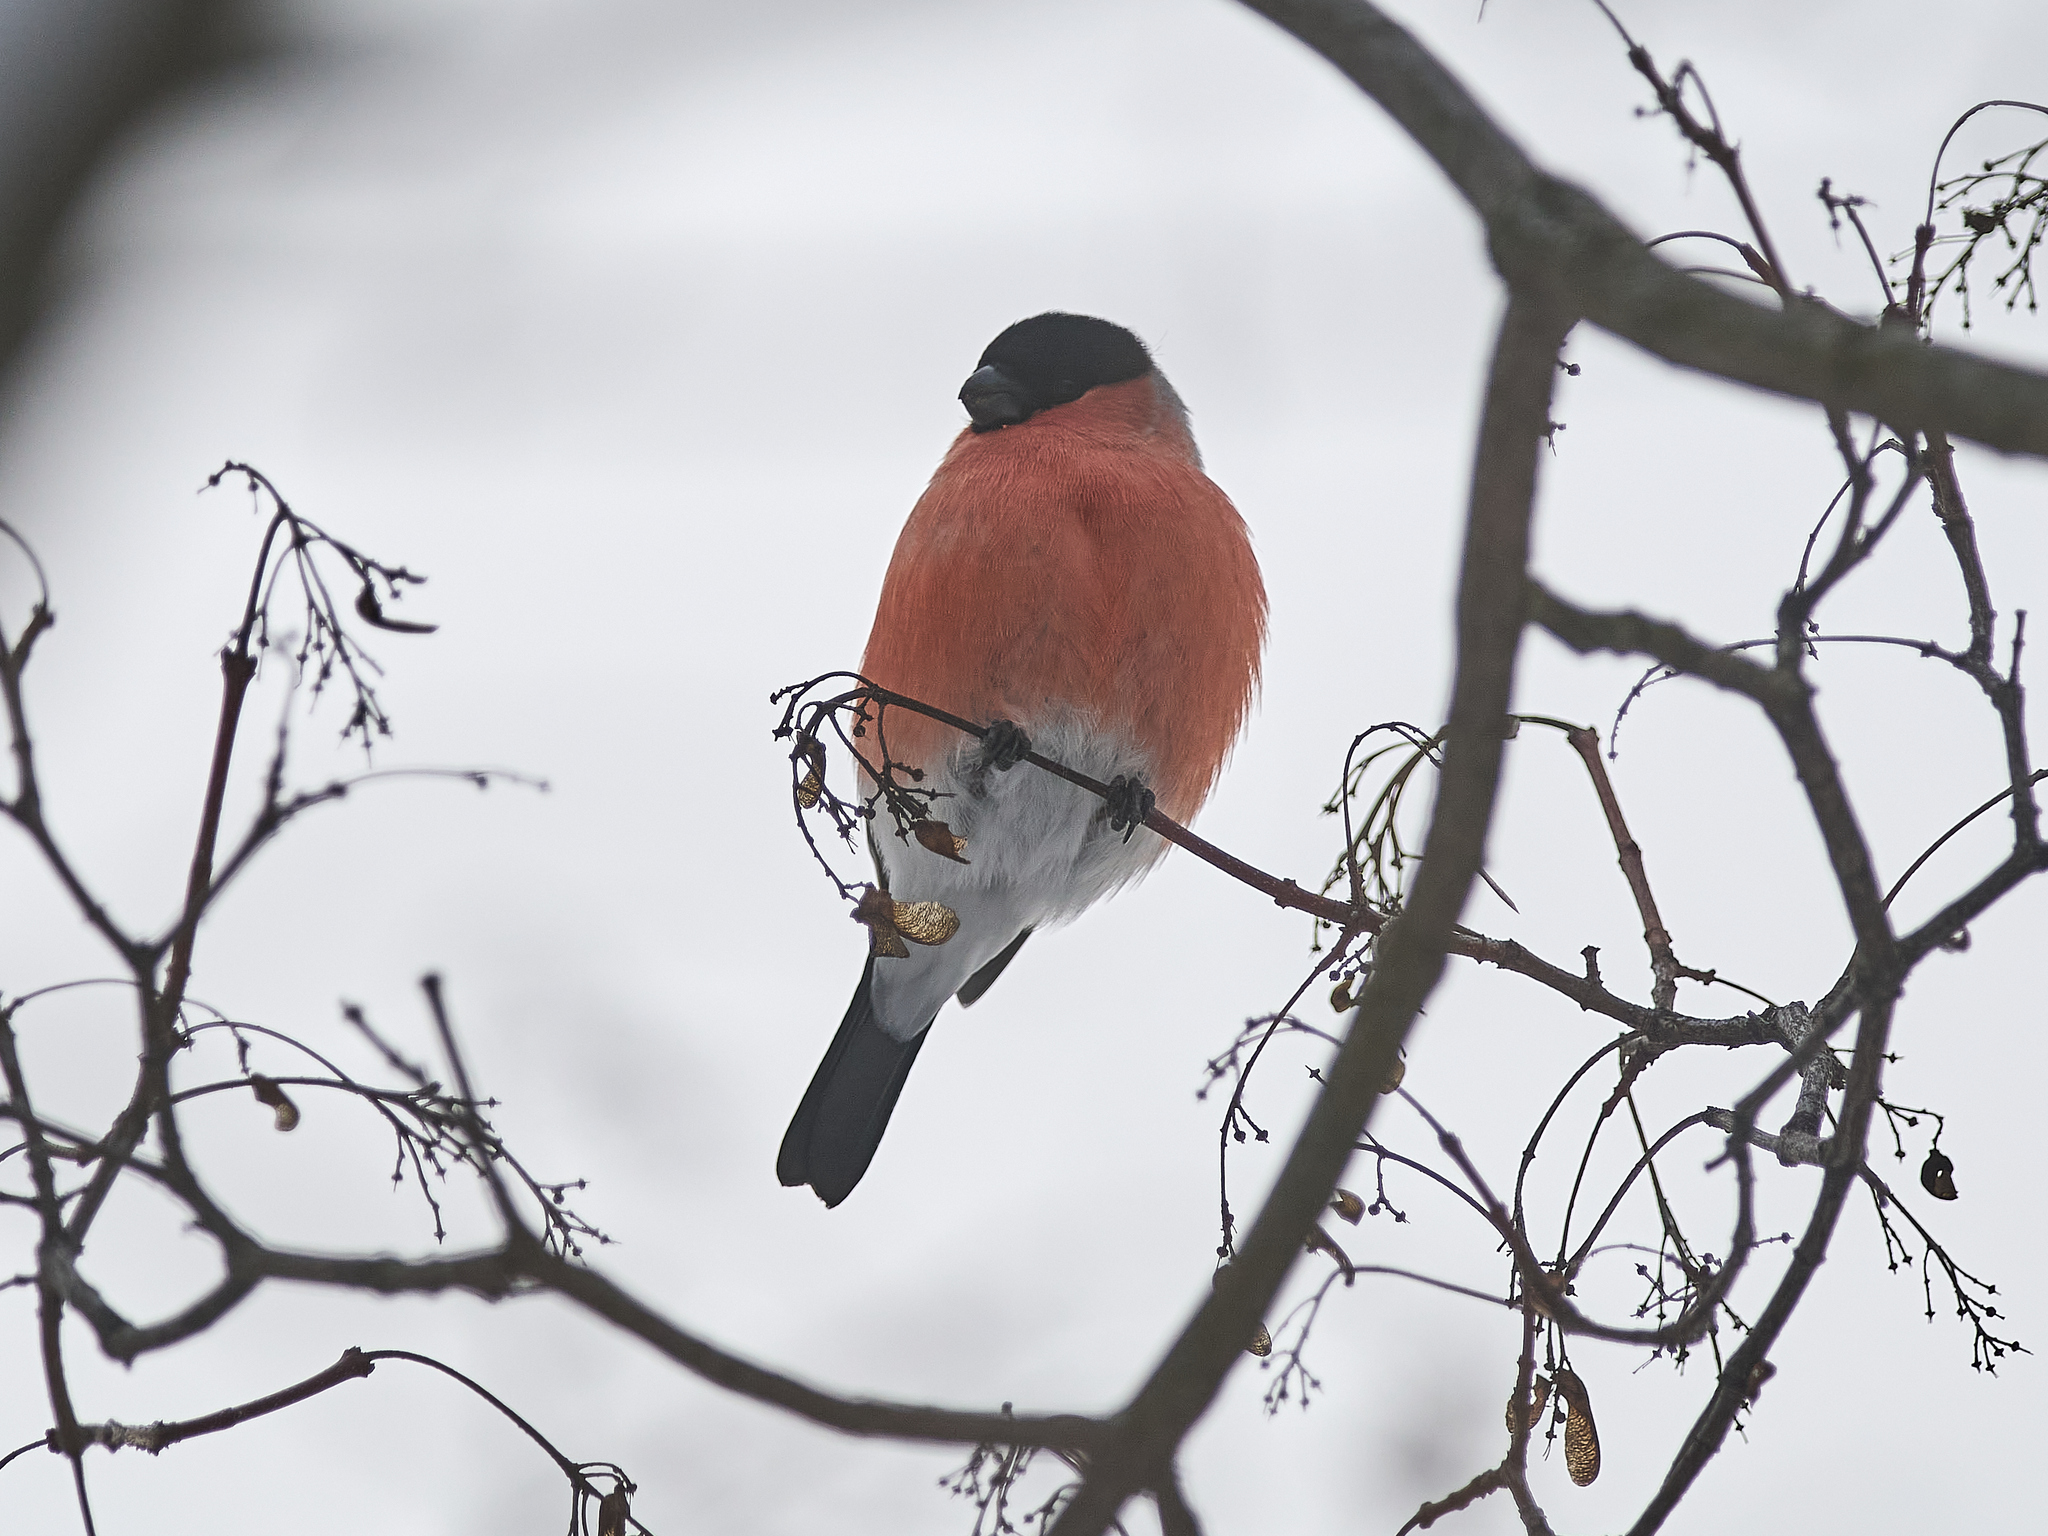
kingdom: Animalia
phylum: Chordata
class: Aves
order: Passeriformes
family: Fringillidae
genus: Pyrrhula
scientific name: Pyrrhula pyrrhula
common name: Eurasian bullfinch
